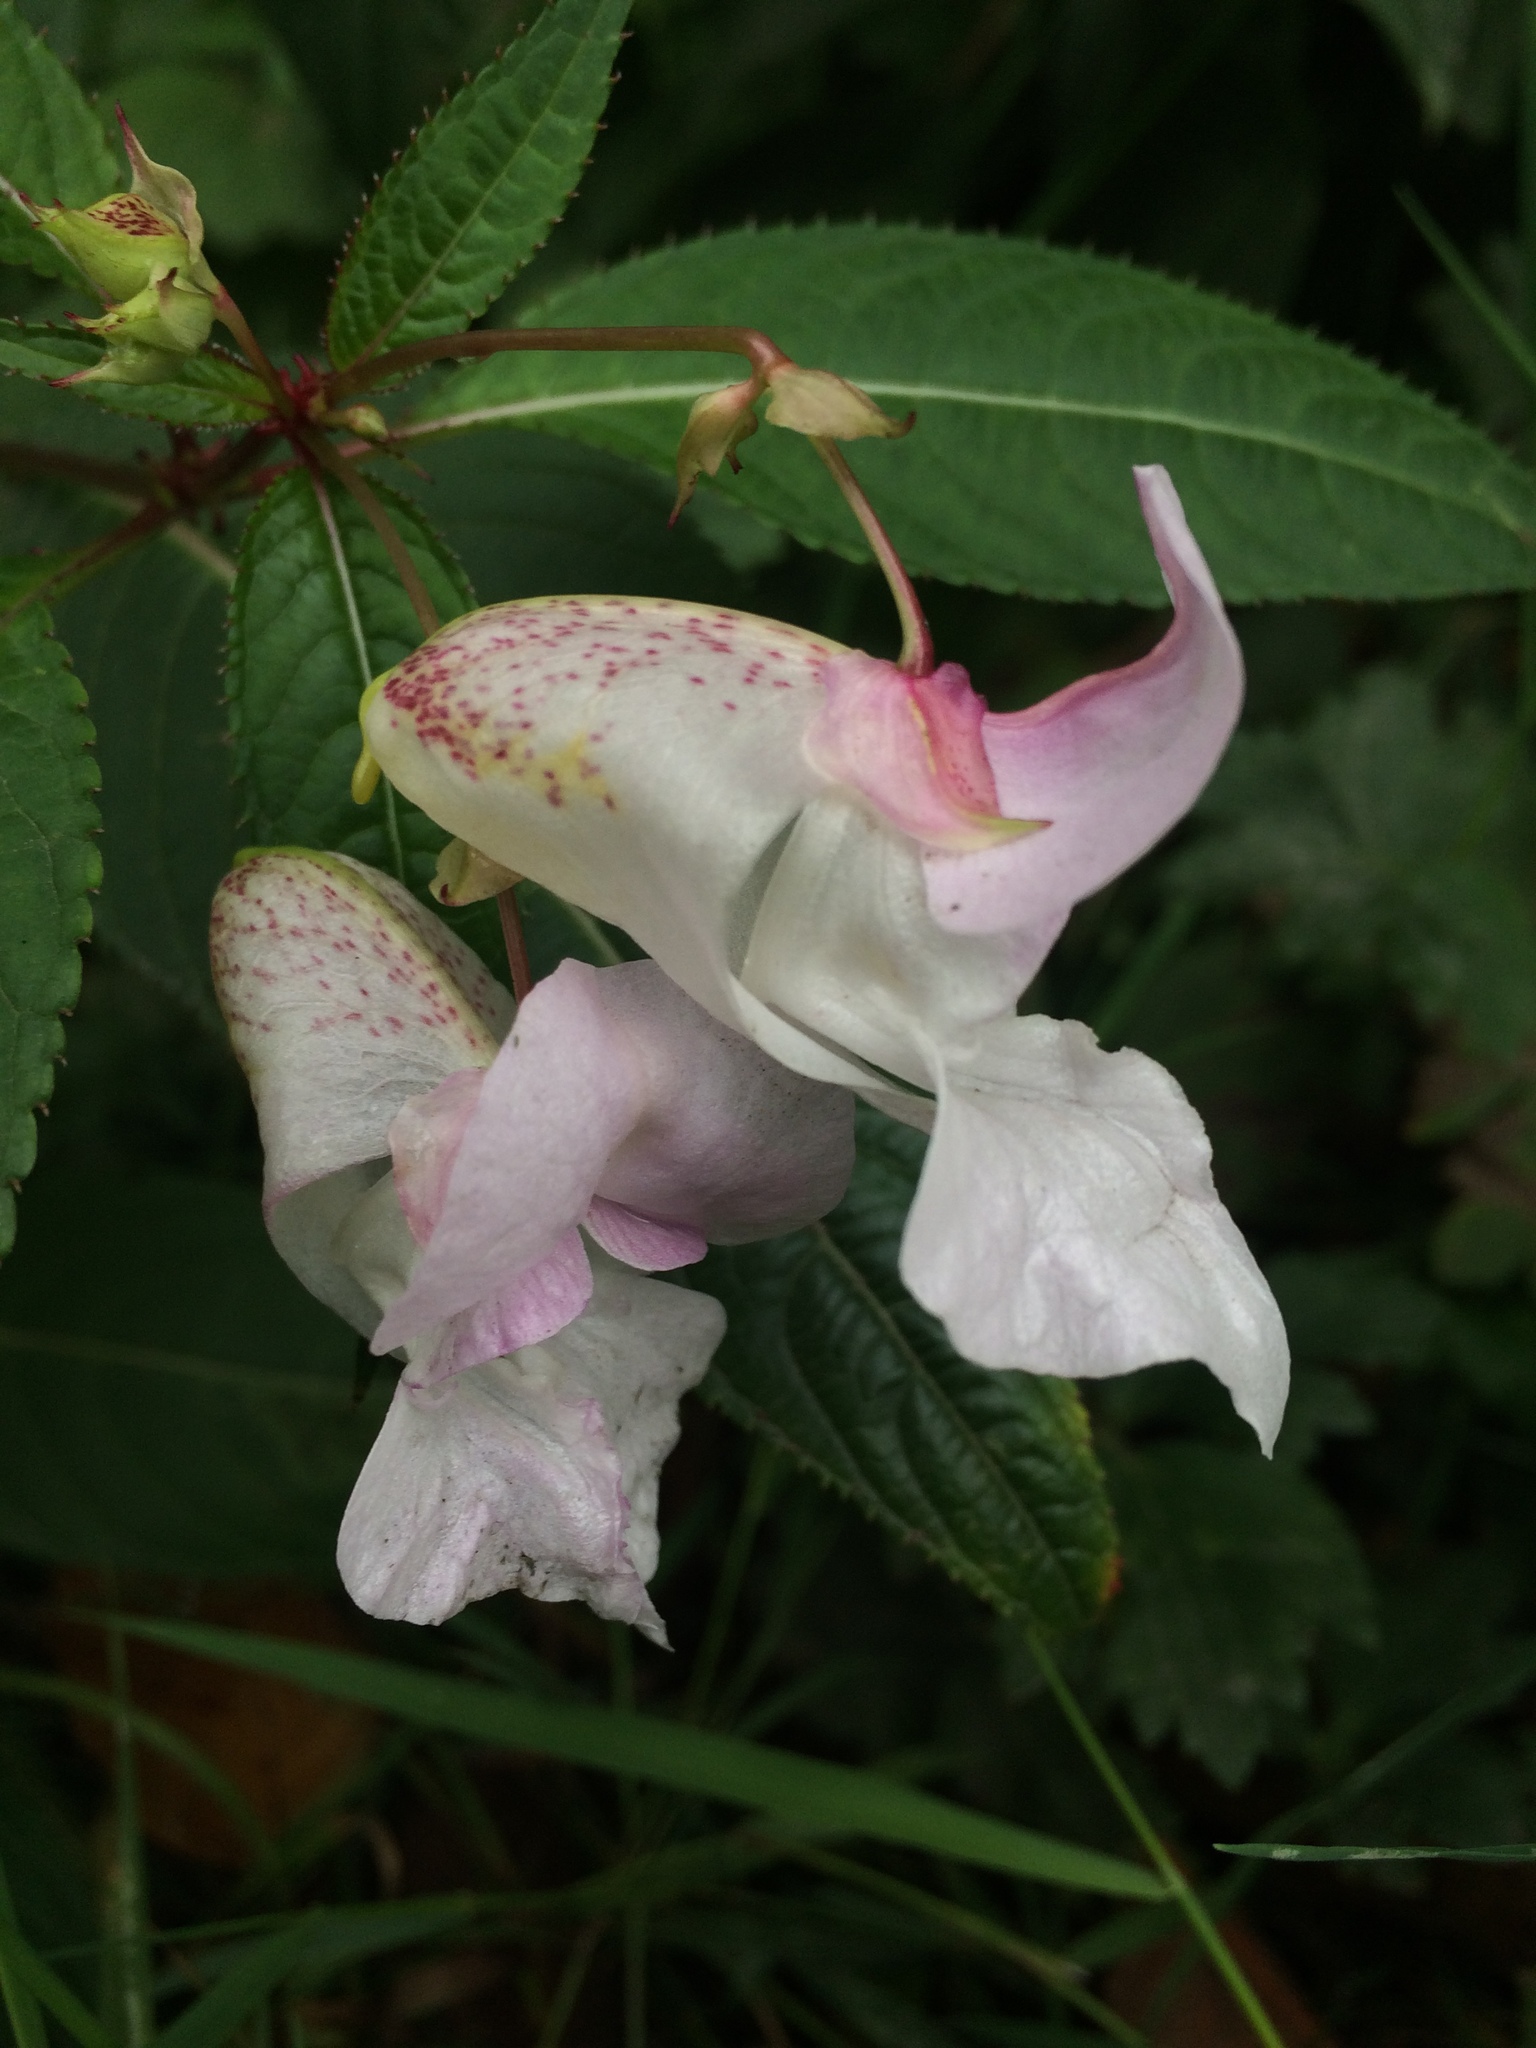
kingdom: Plantae
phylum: Tracheophyta
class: Magnoliopsida
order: Ericales
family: Balsaminaceae
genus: Impatiens
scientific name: Impatiens glandulifera
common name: Himalayan balsam
